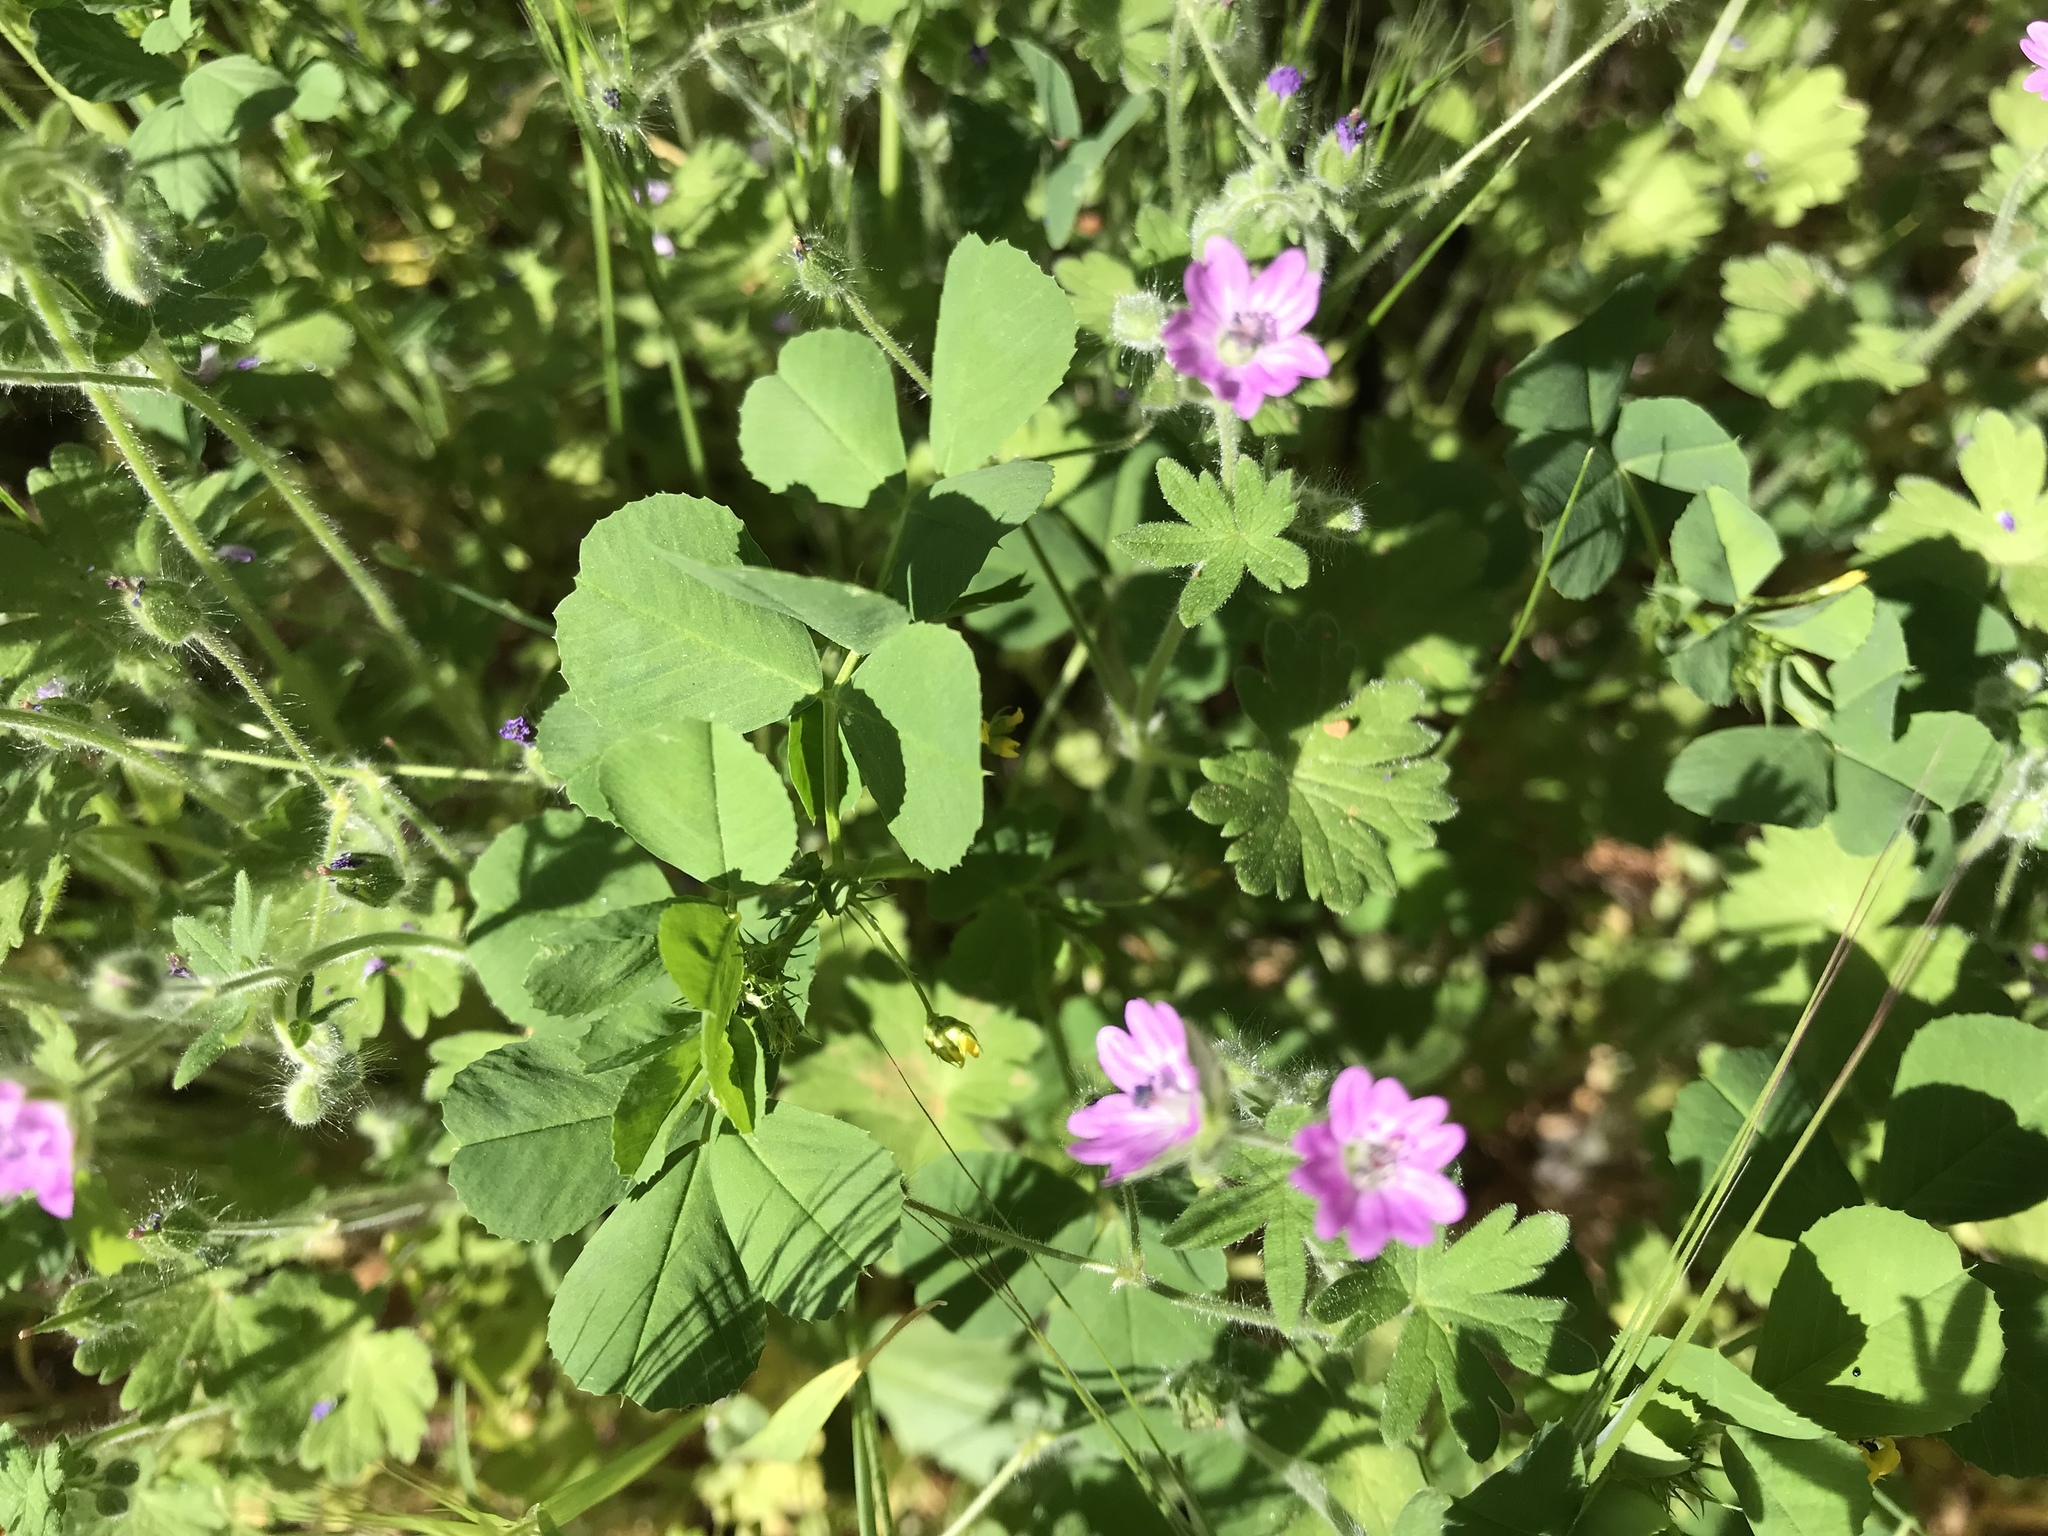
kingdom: Plantae
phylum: Tracheophyta
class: Magnoliopsida
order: Geraniales
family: Geraniaceae
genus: Geranium
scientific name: Geranium molle
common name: Dove's-foot crane's-bill
